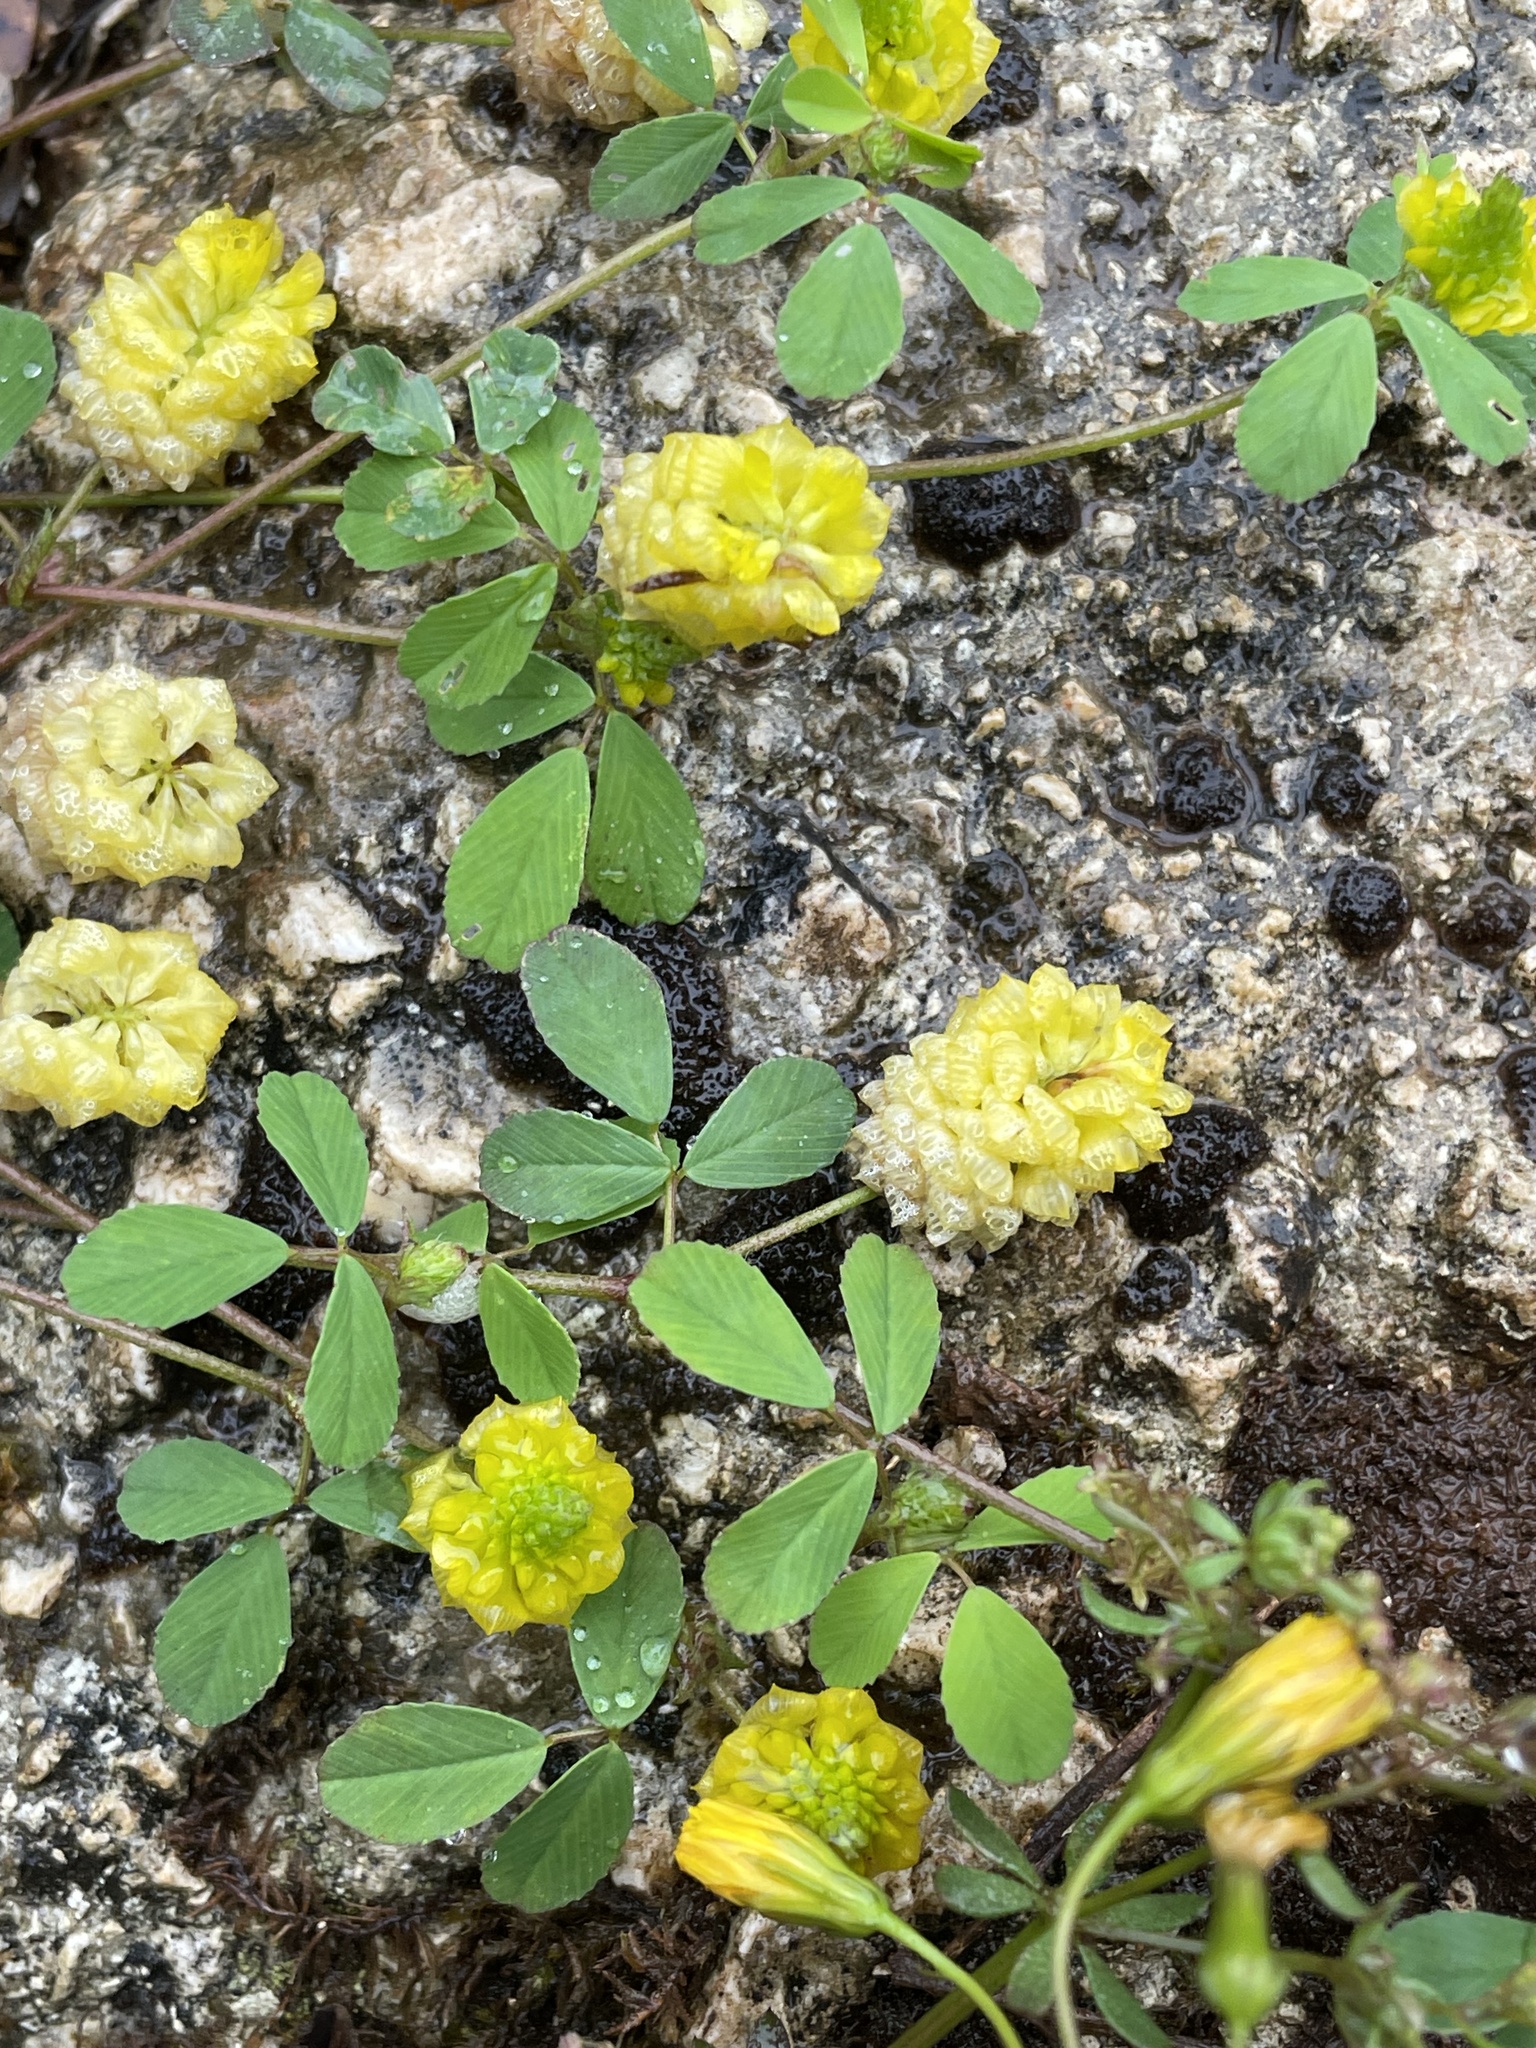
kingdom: Plantae
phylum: Tracheophyta
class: Magnoliopsida
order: Fabales
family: Fabaceae
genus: Trifolium
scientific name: Trifolium campestre
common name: Field clover
